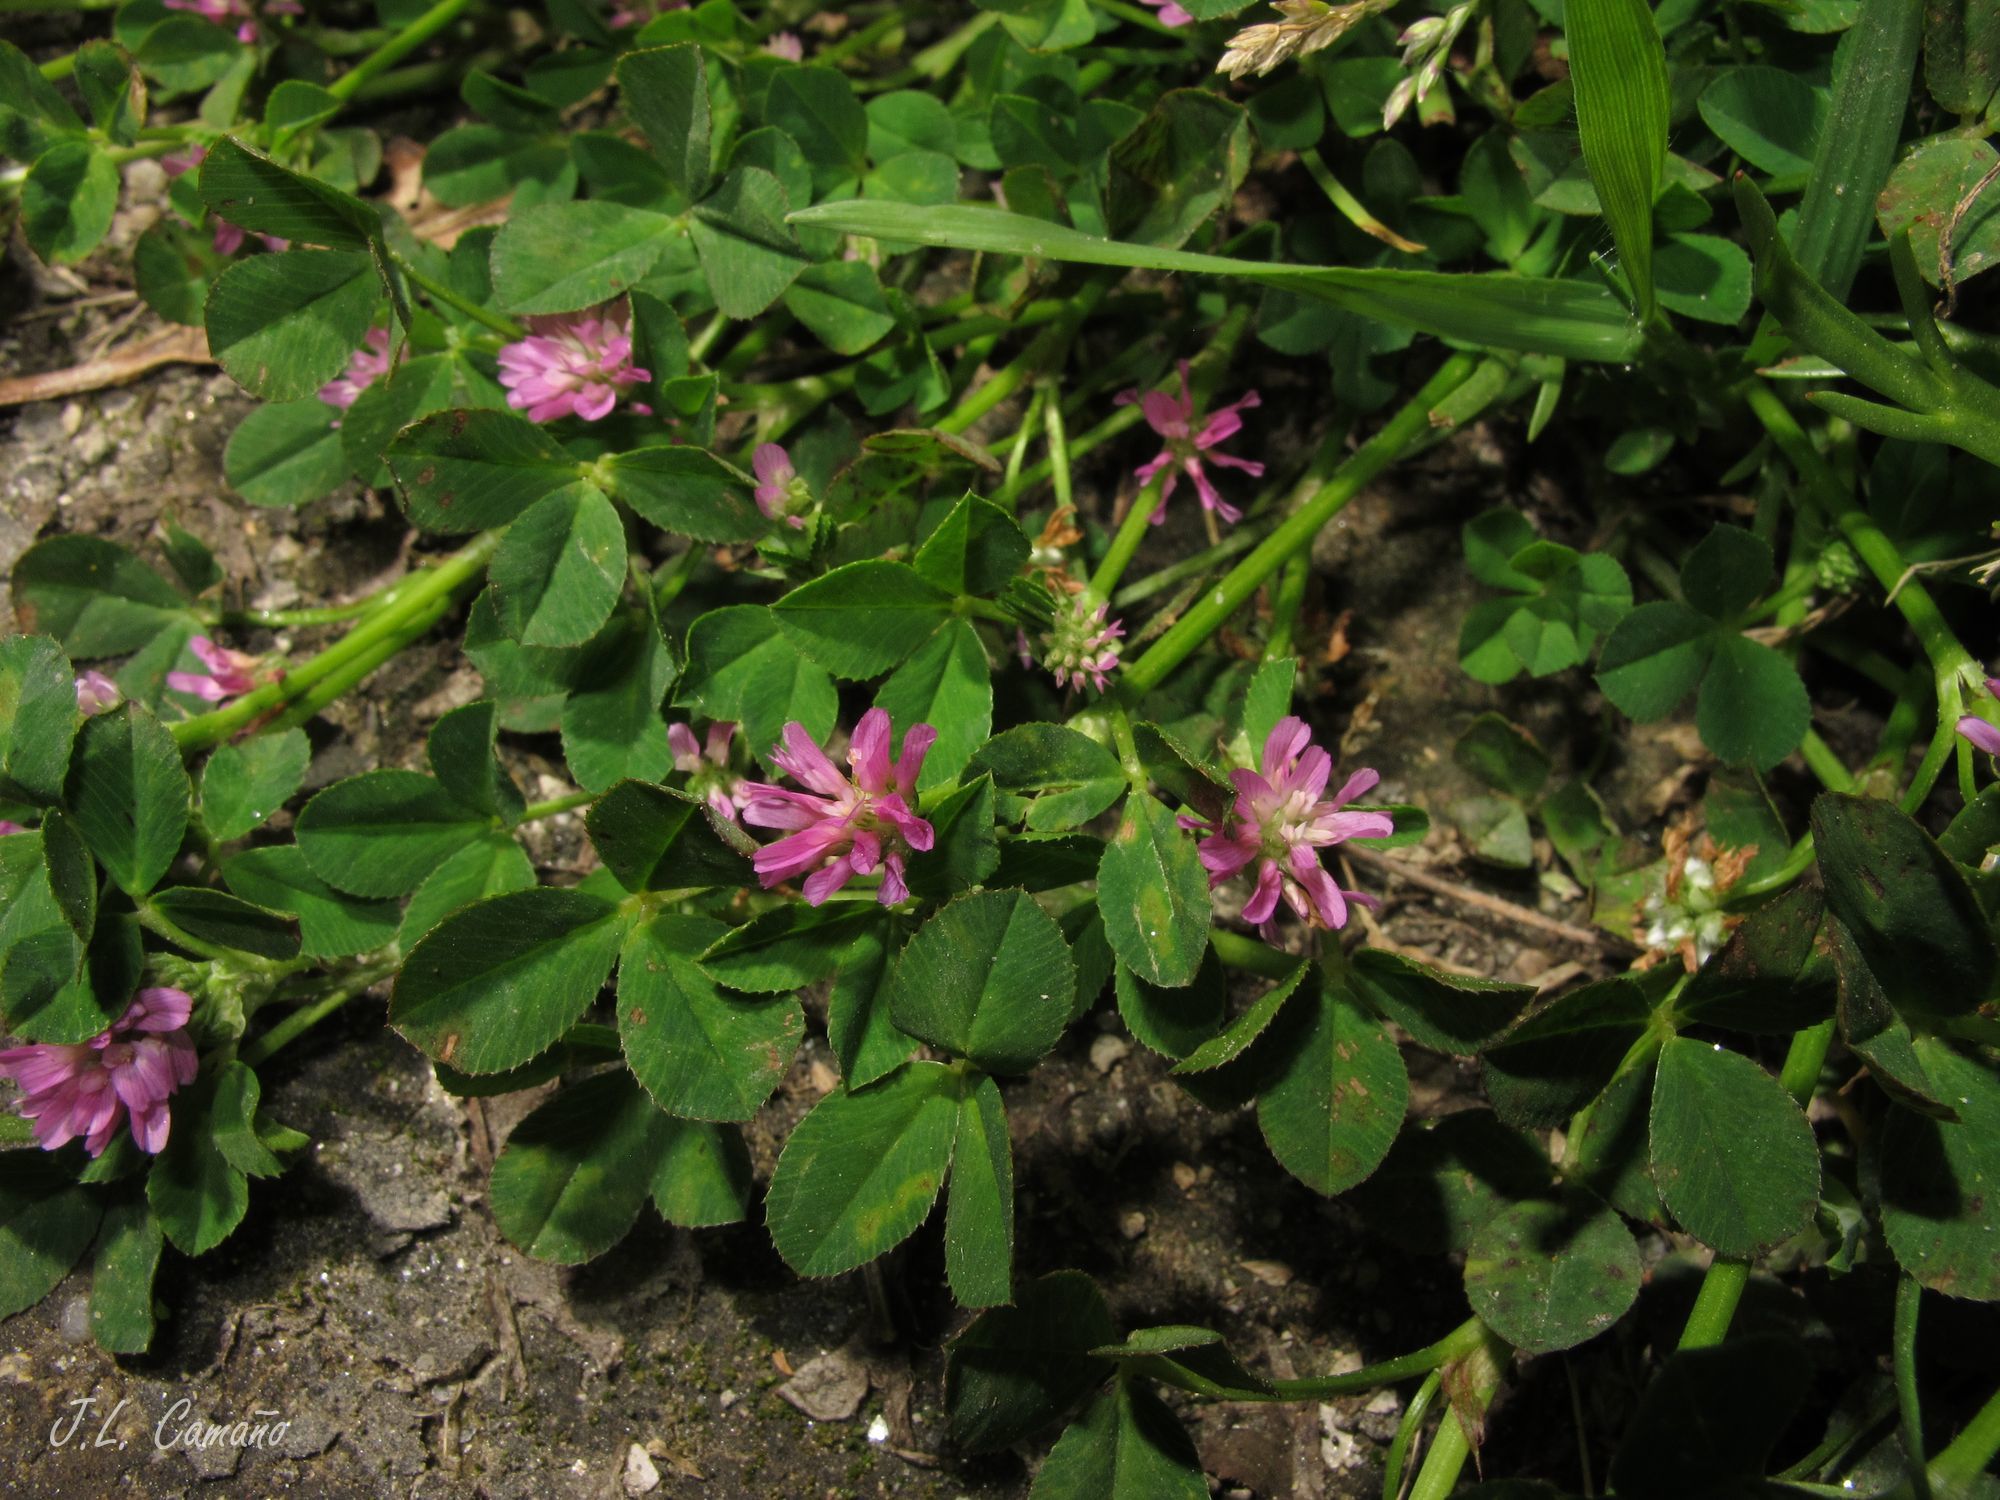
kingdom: Plantae
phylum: Tracheophyta
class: Magnoliopsida
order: Fabales
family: Fabaceae
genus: Trifolium
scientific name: Trifolium resupinatum
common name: Reversed clover
